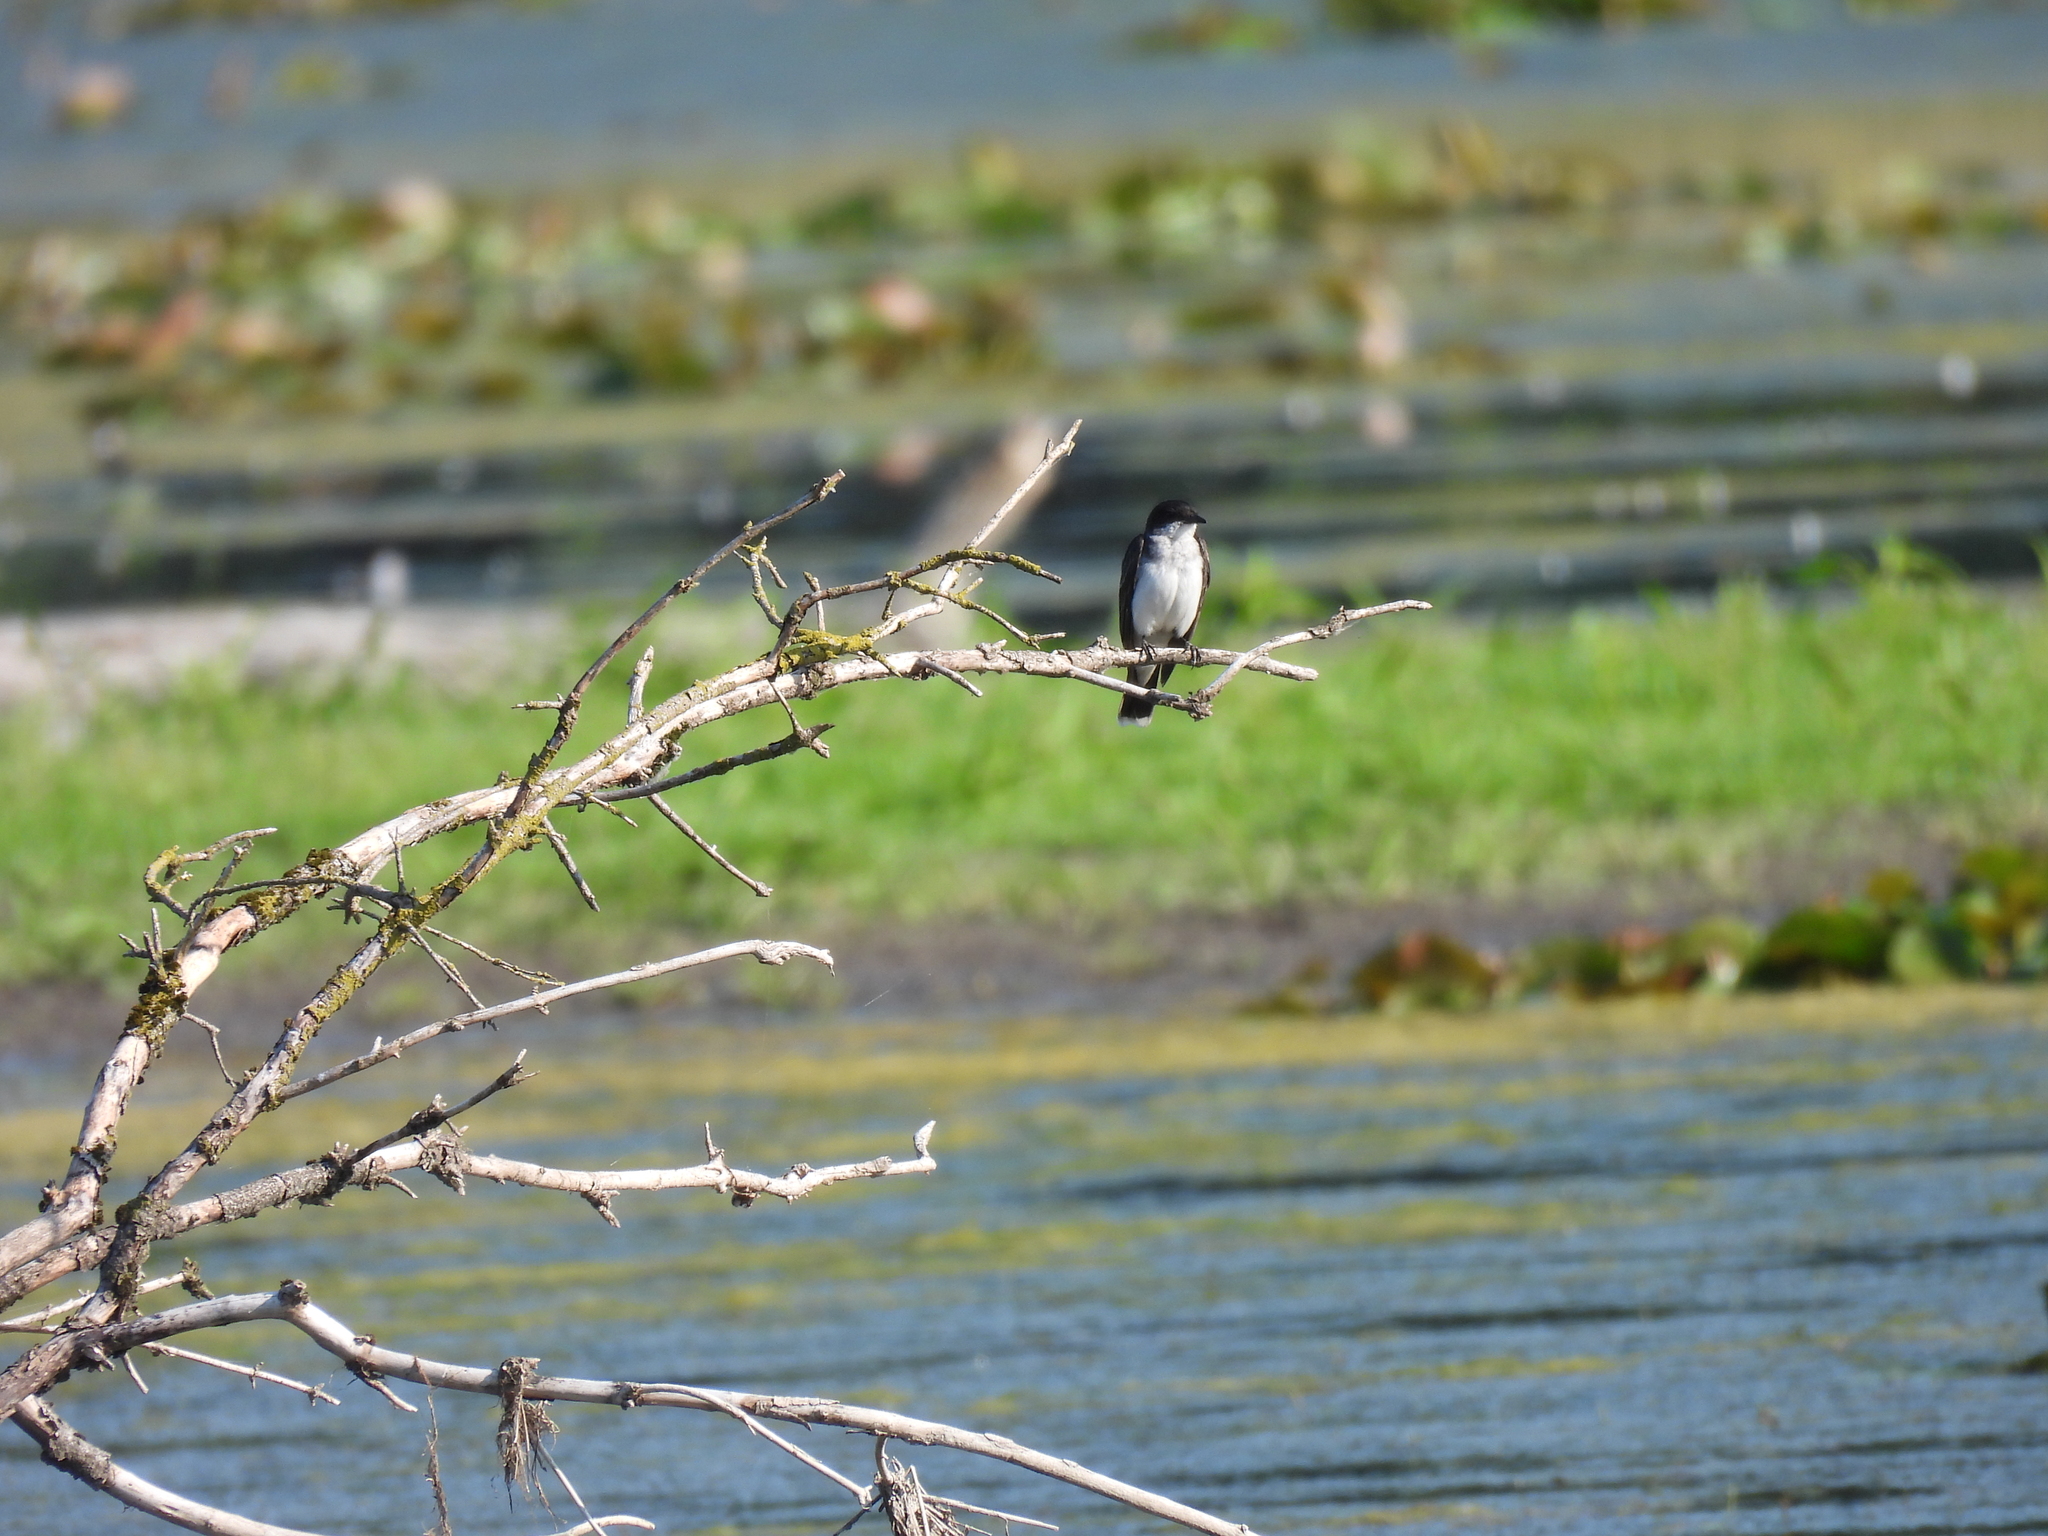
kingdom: Animalia
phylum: Chordata
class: Aves
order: Passeriformes
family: Tyrannidae
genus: Tyrannus
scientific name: Tyrannus tyrannus
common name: Eastern kingbird
